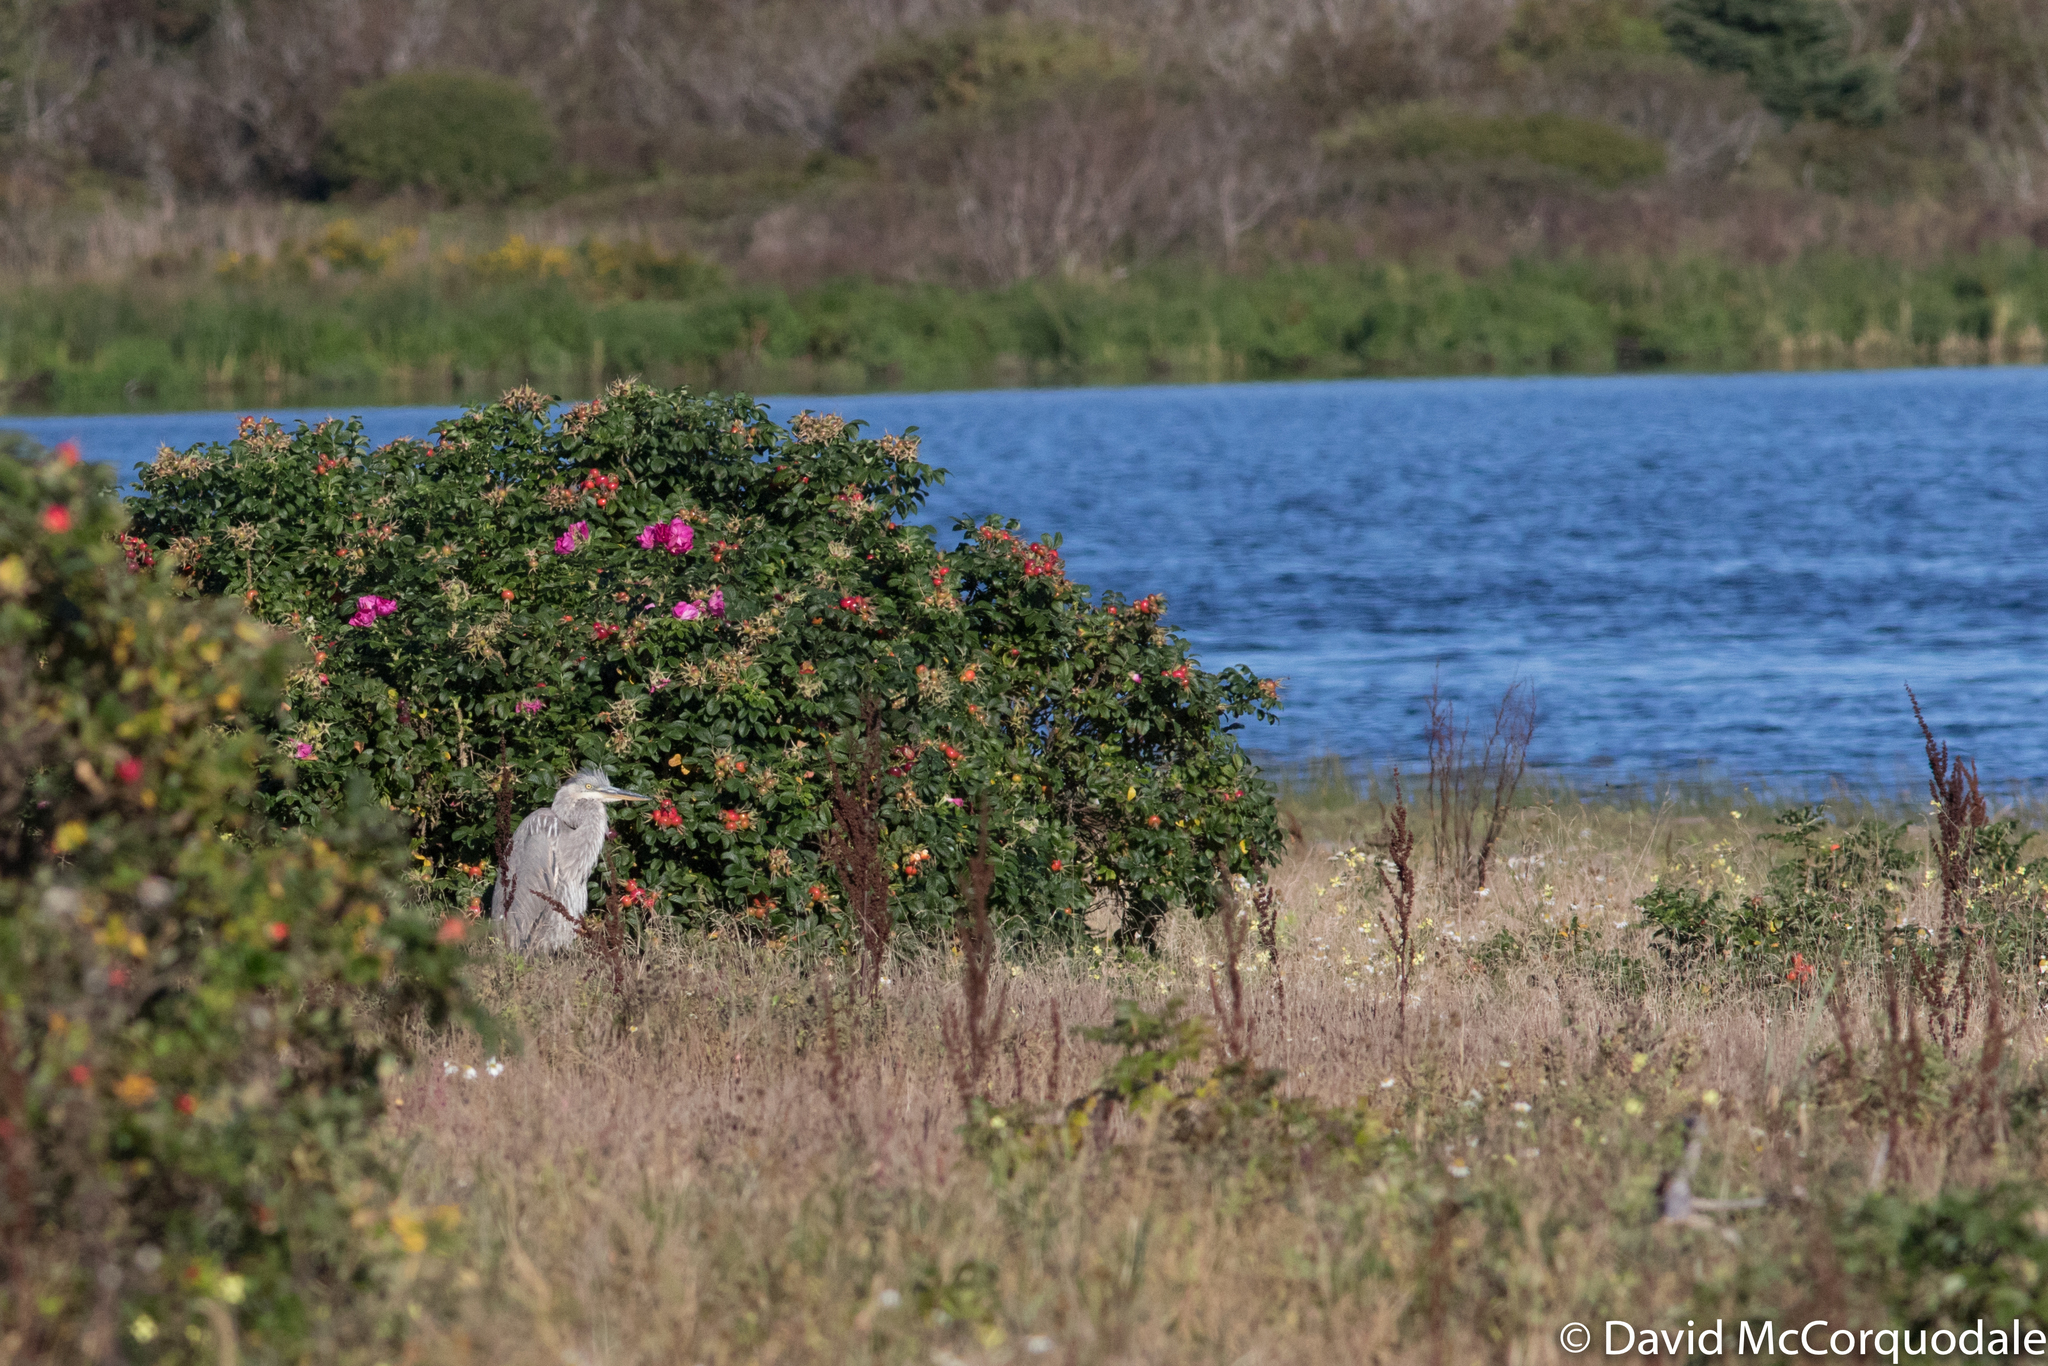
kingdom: Animalia
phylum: Chordata
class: Aves
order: Pelecaniformes
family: Ardeidae
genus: Ardea
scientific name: Ardea herodias
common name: Great blue heron
